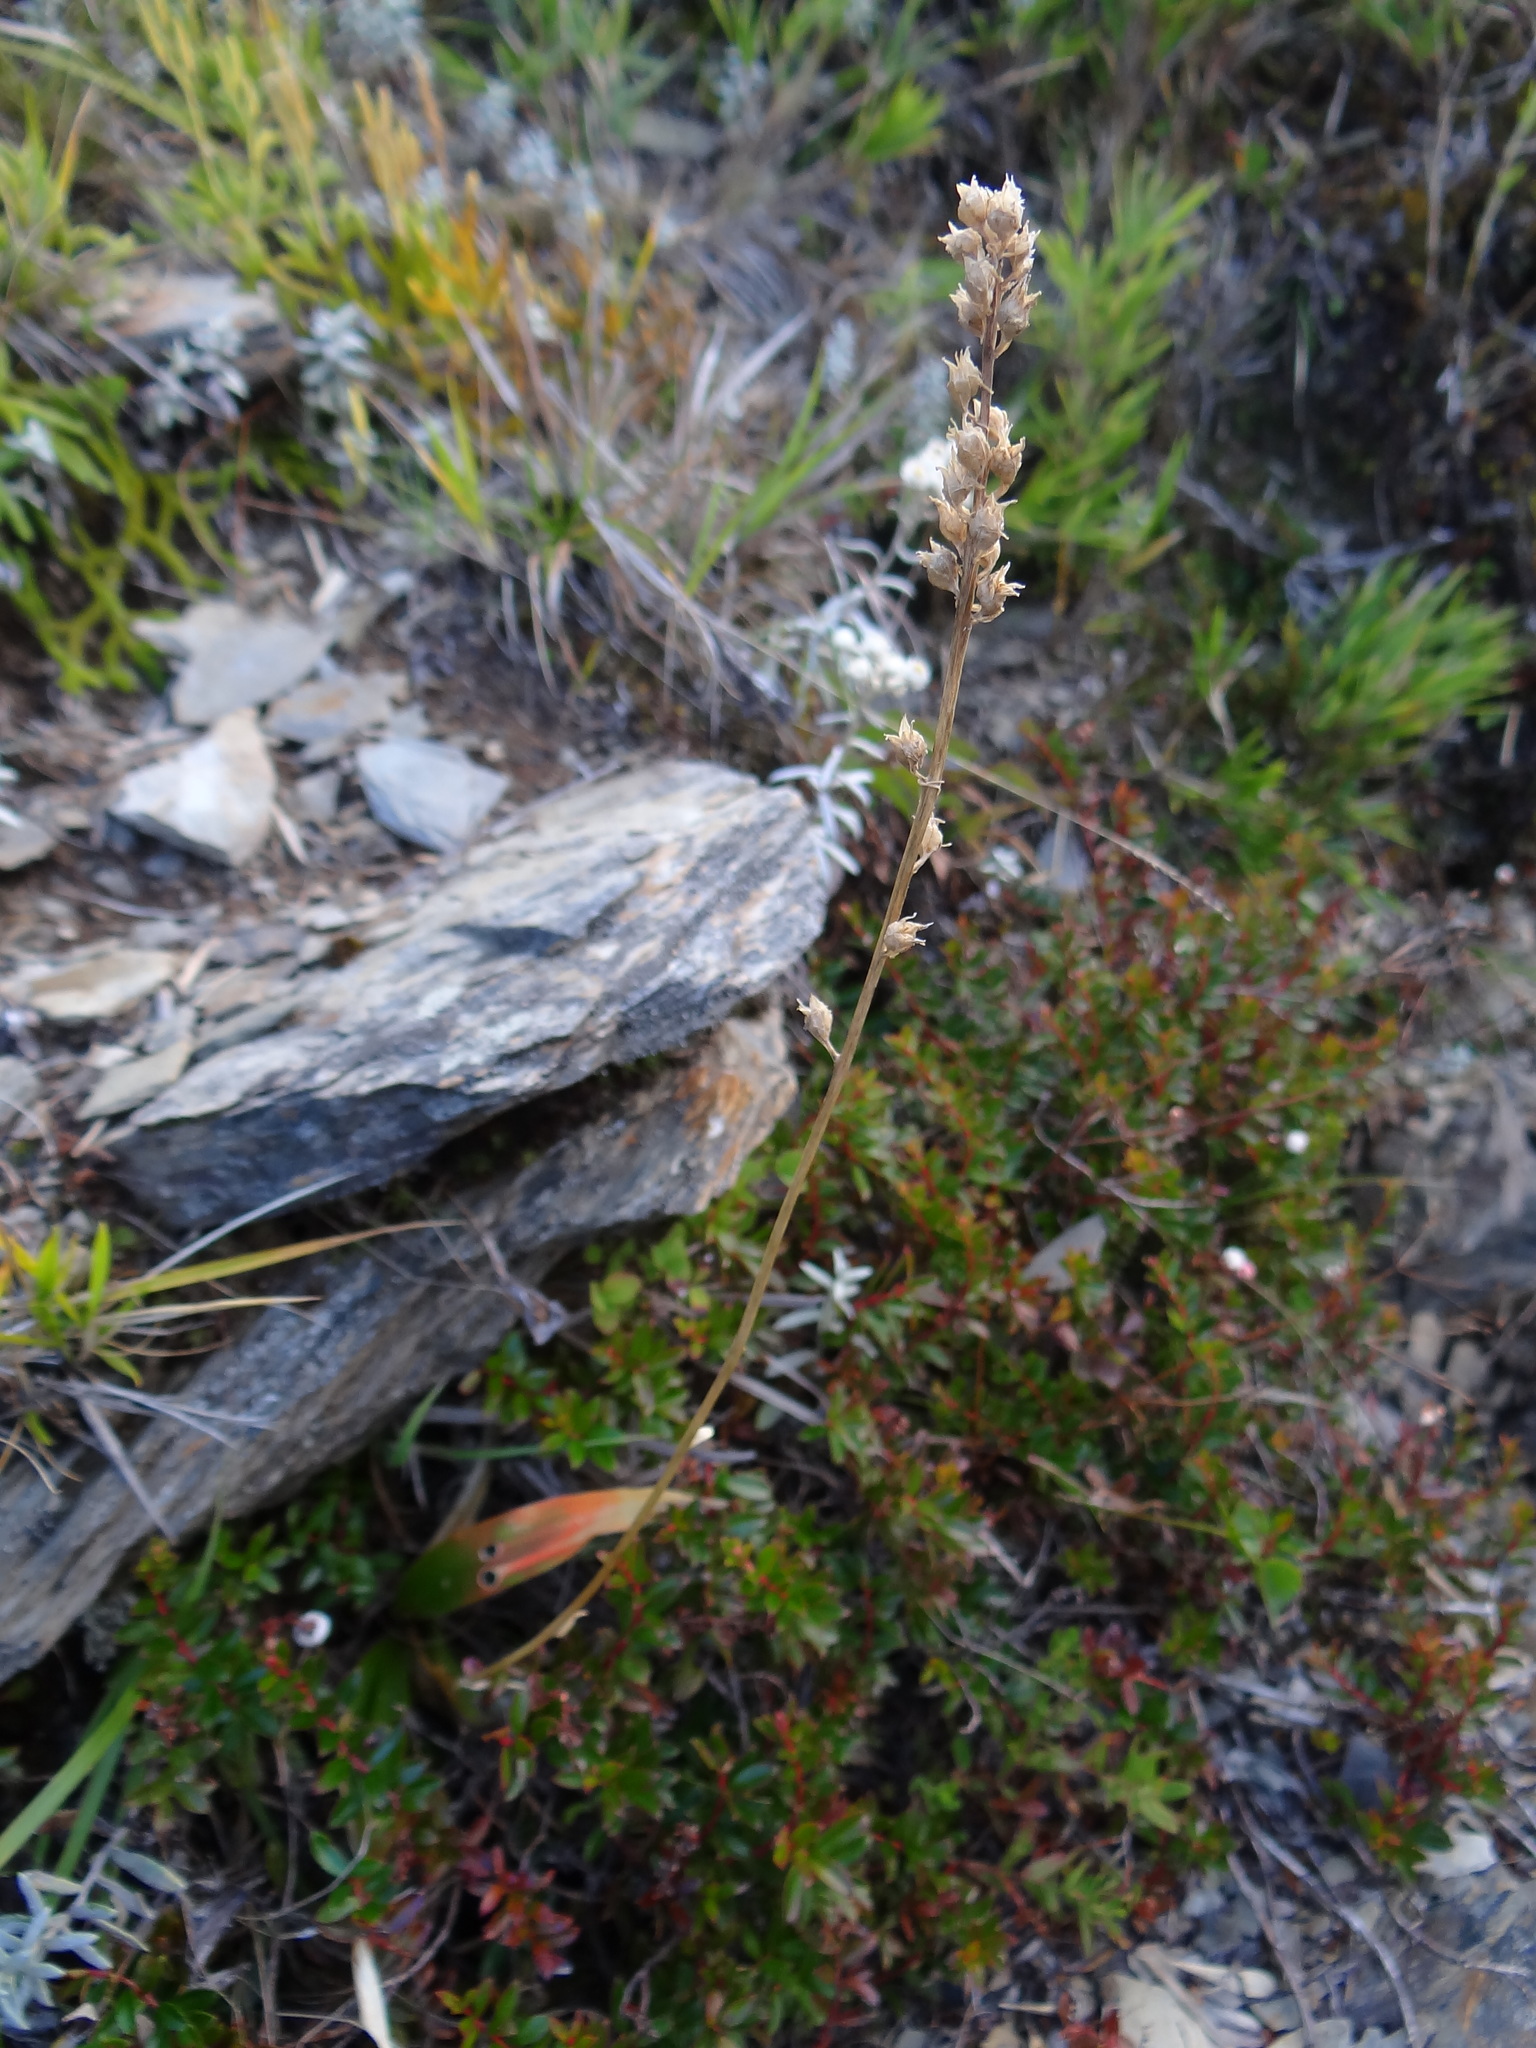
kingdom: Plantae
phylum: Tracheophyta
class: Liliopsida
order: Dioscoreales
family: Nartheciaceae
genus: Aletris
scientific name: Aletris glabra
